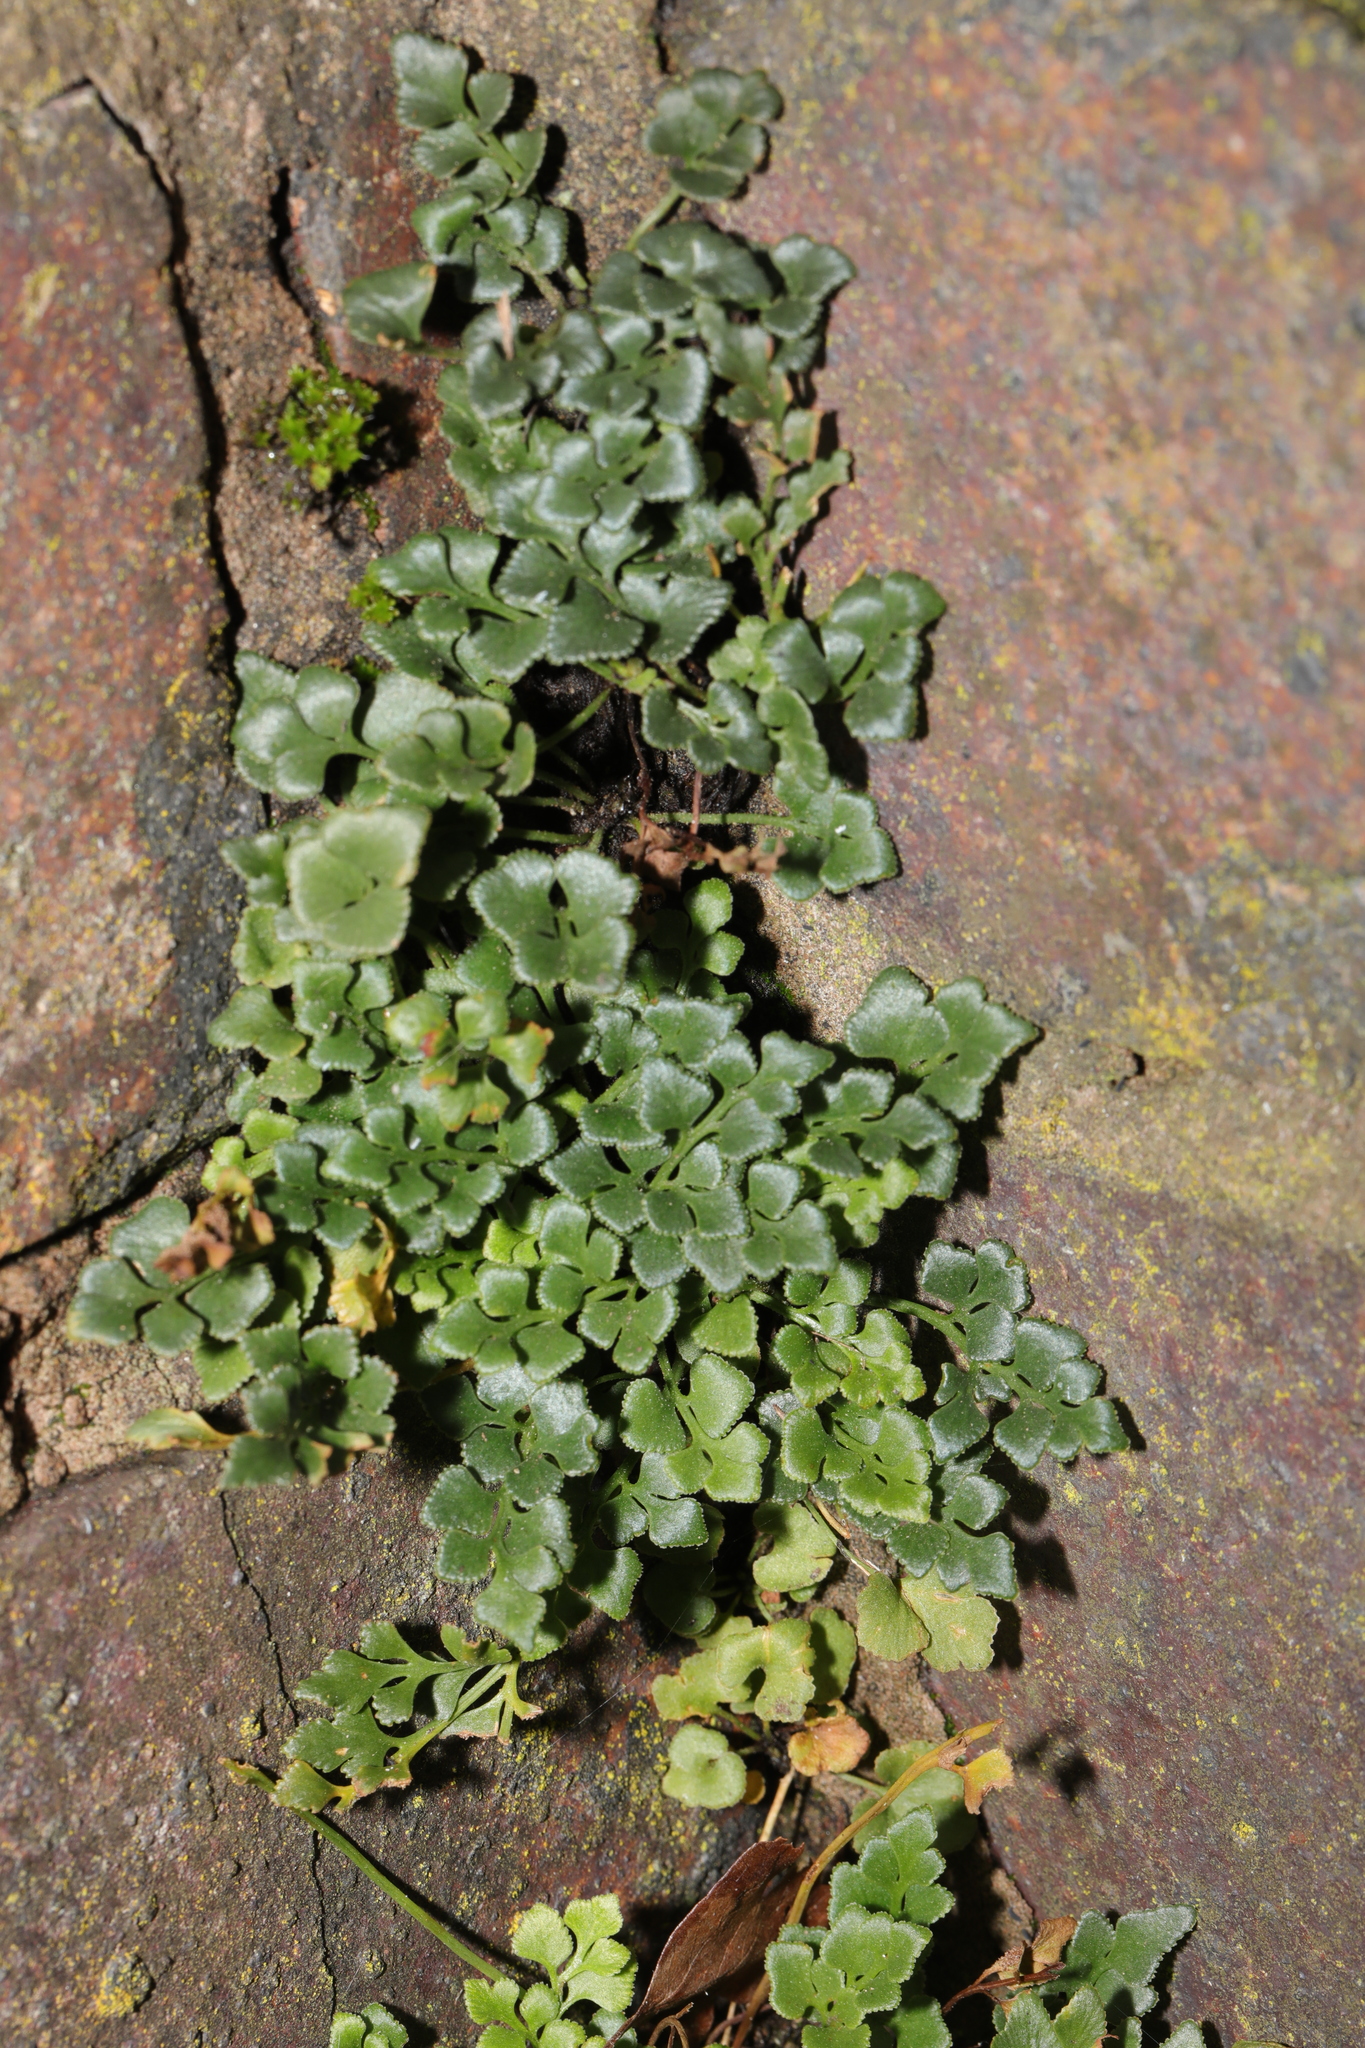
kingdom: Plantae
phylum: Tracheophyta
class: Polypodiopsida
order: Polypodiales
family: Aspleniaceae
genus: Asplenium
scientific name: Asplenium ruta-muraria
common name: Wall-rue
